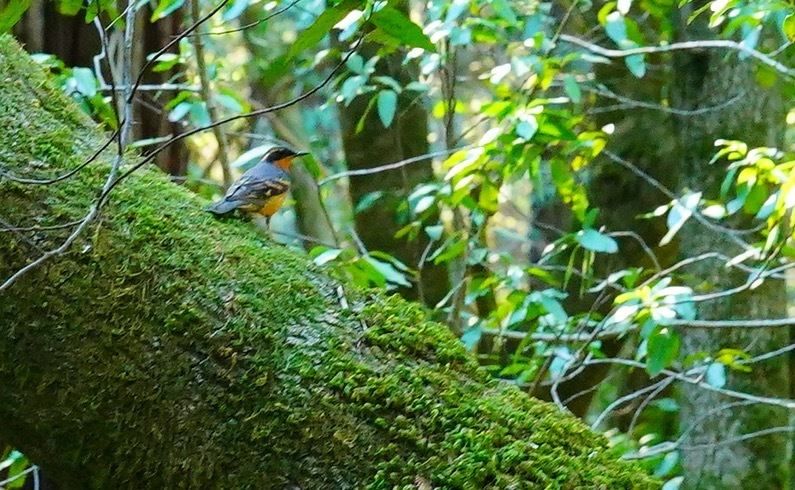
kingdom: Animalia
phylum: Chordata
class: Aves
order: Passeriformes
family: Turdidae
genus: Ixoreus
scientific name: Ixoreus naevius
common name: Varied thrush
